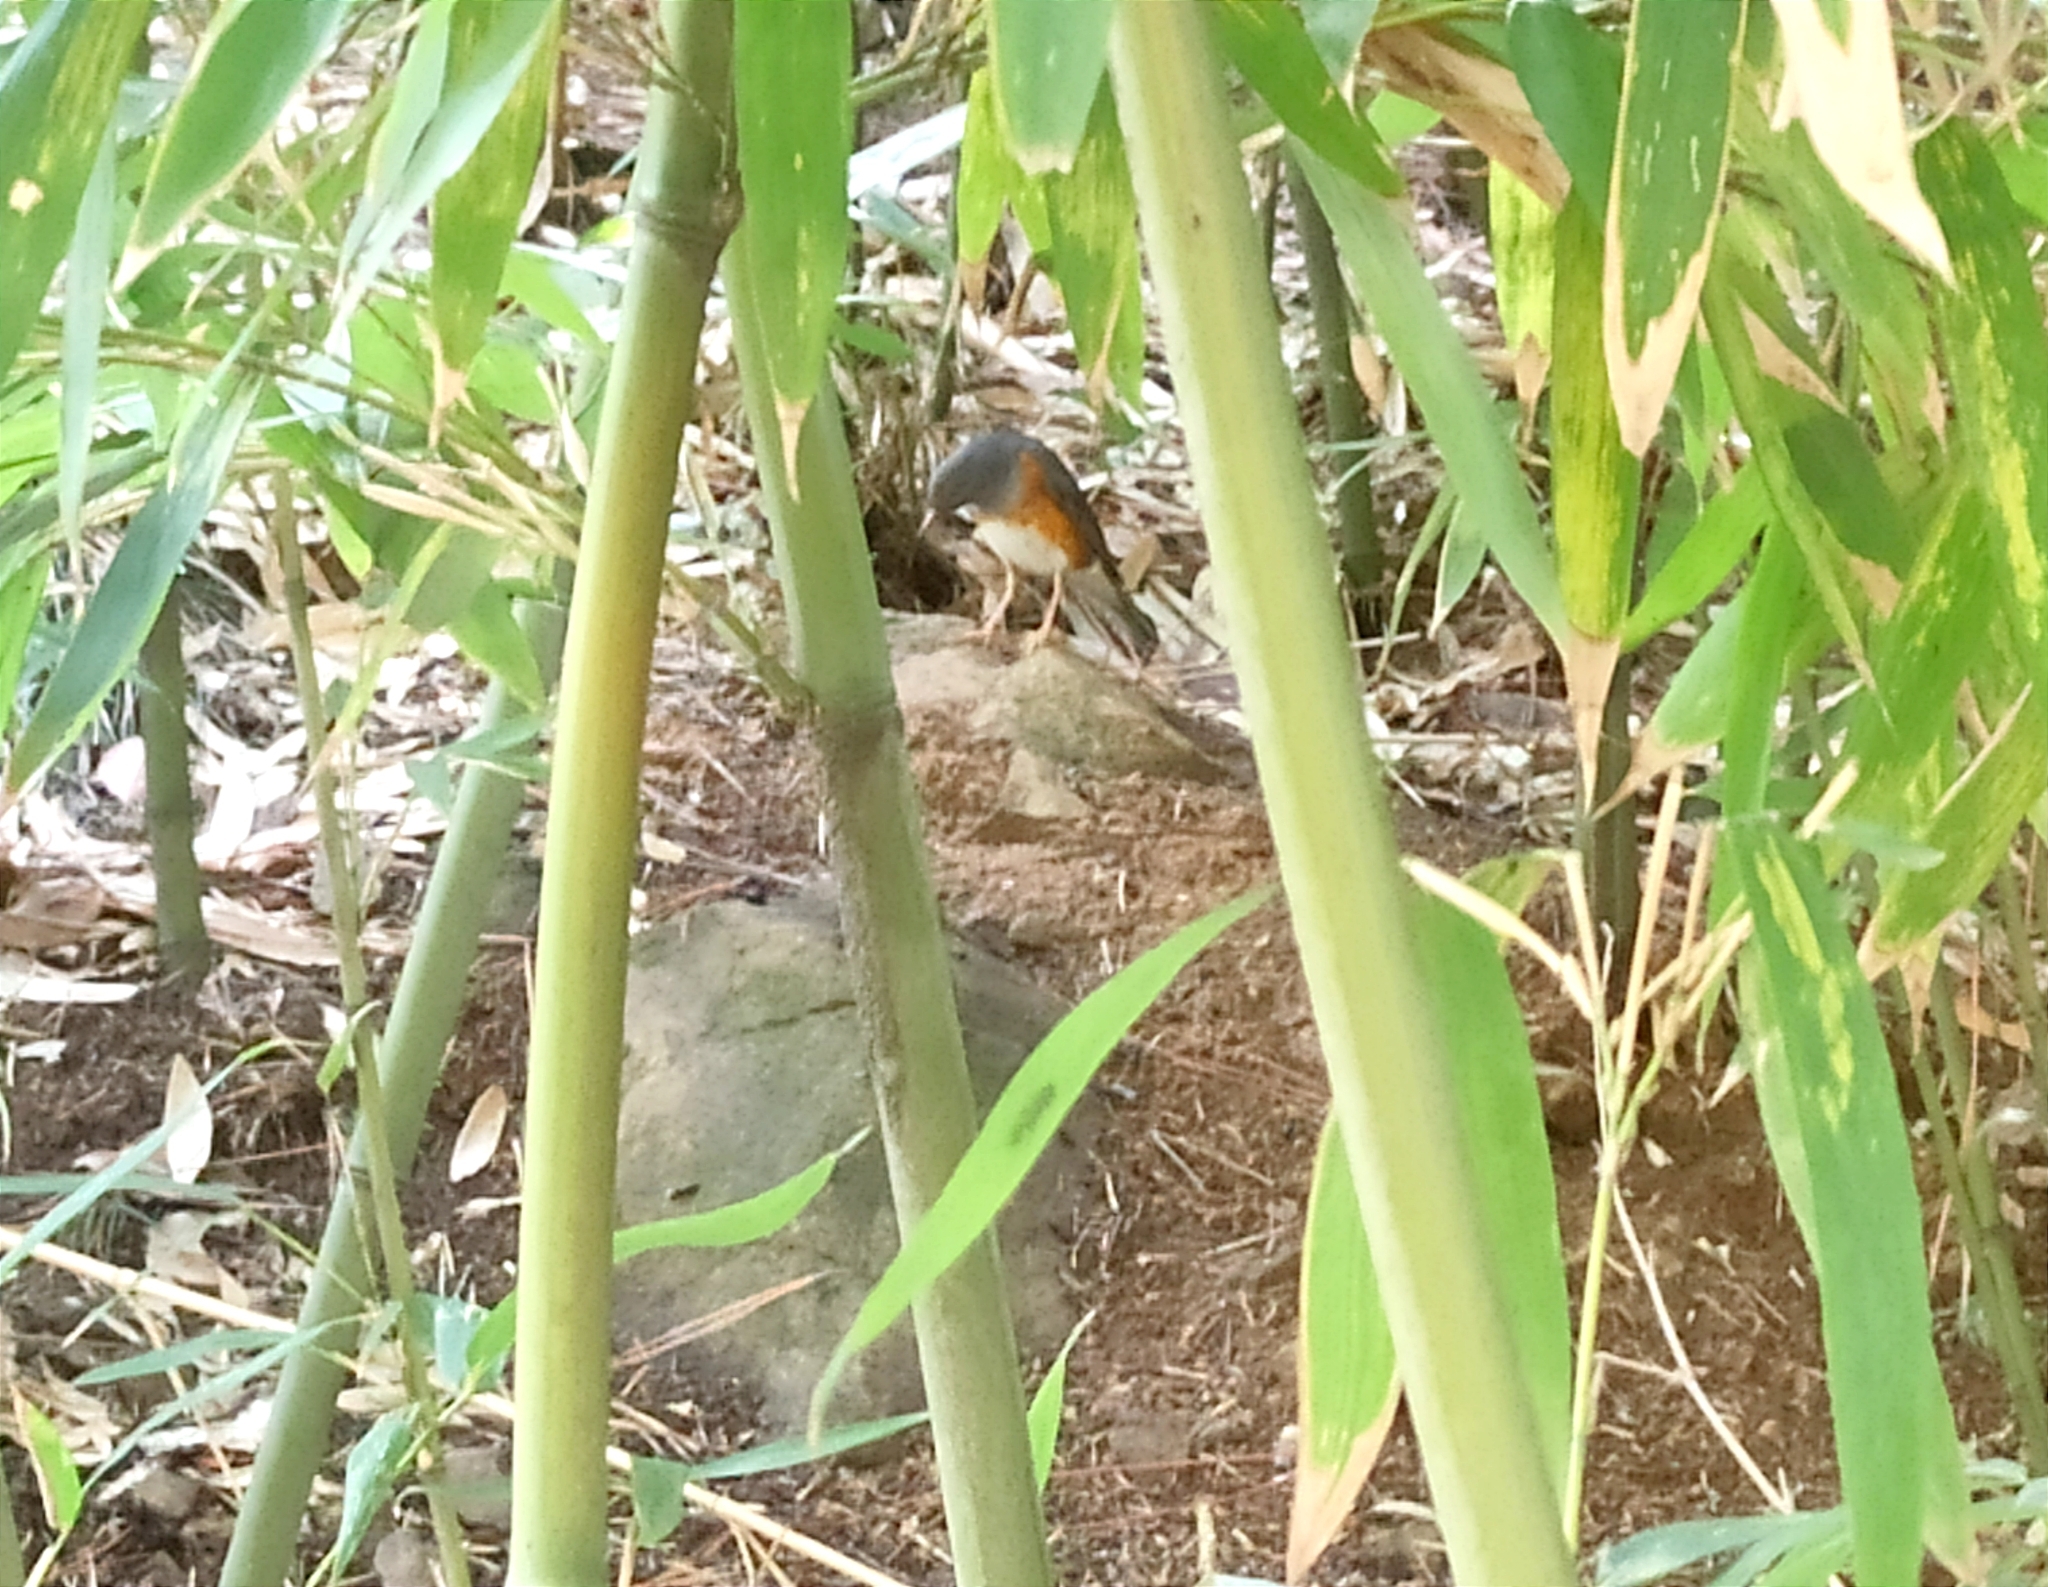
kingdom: Animalia
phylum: Chordata
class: Aves
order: Passeriformes
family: Turdidae
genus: Turdus
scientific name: Turdus hortulorum
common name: Grey-backed thrush
